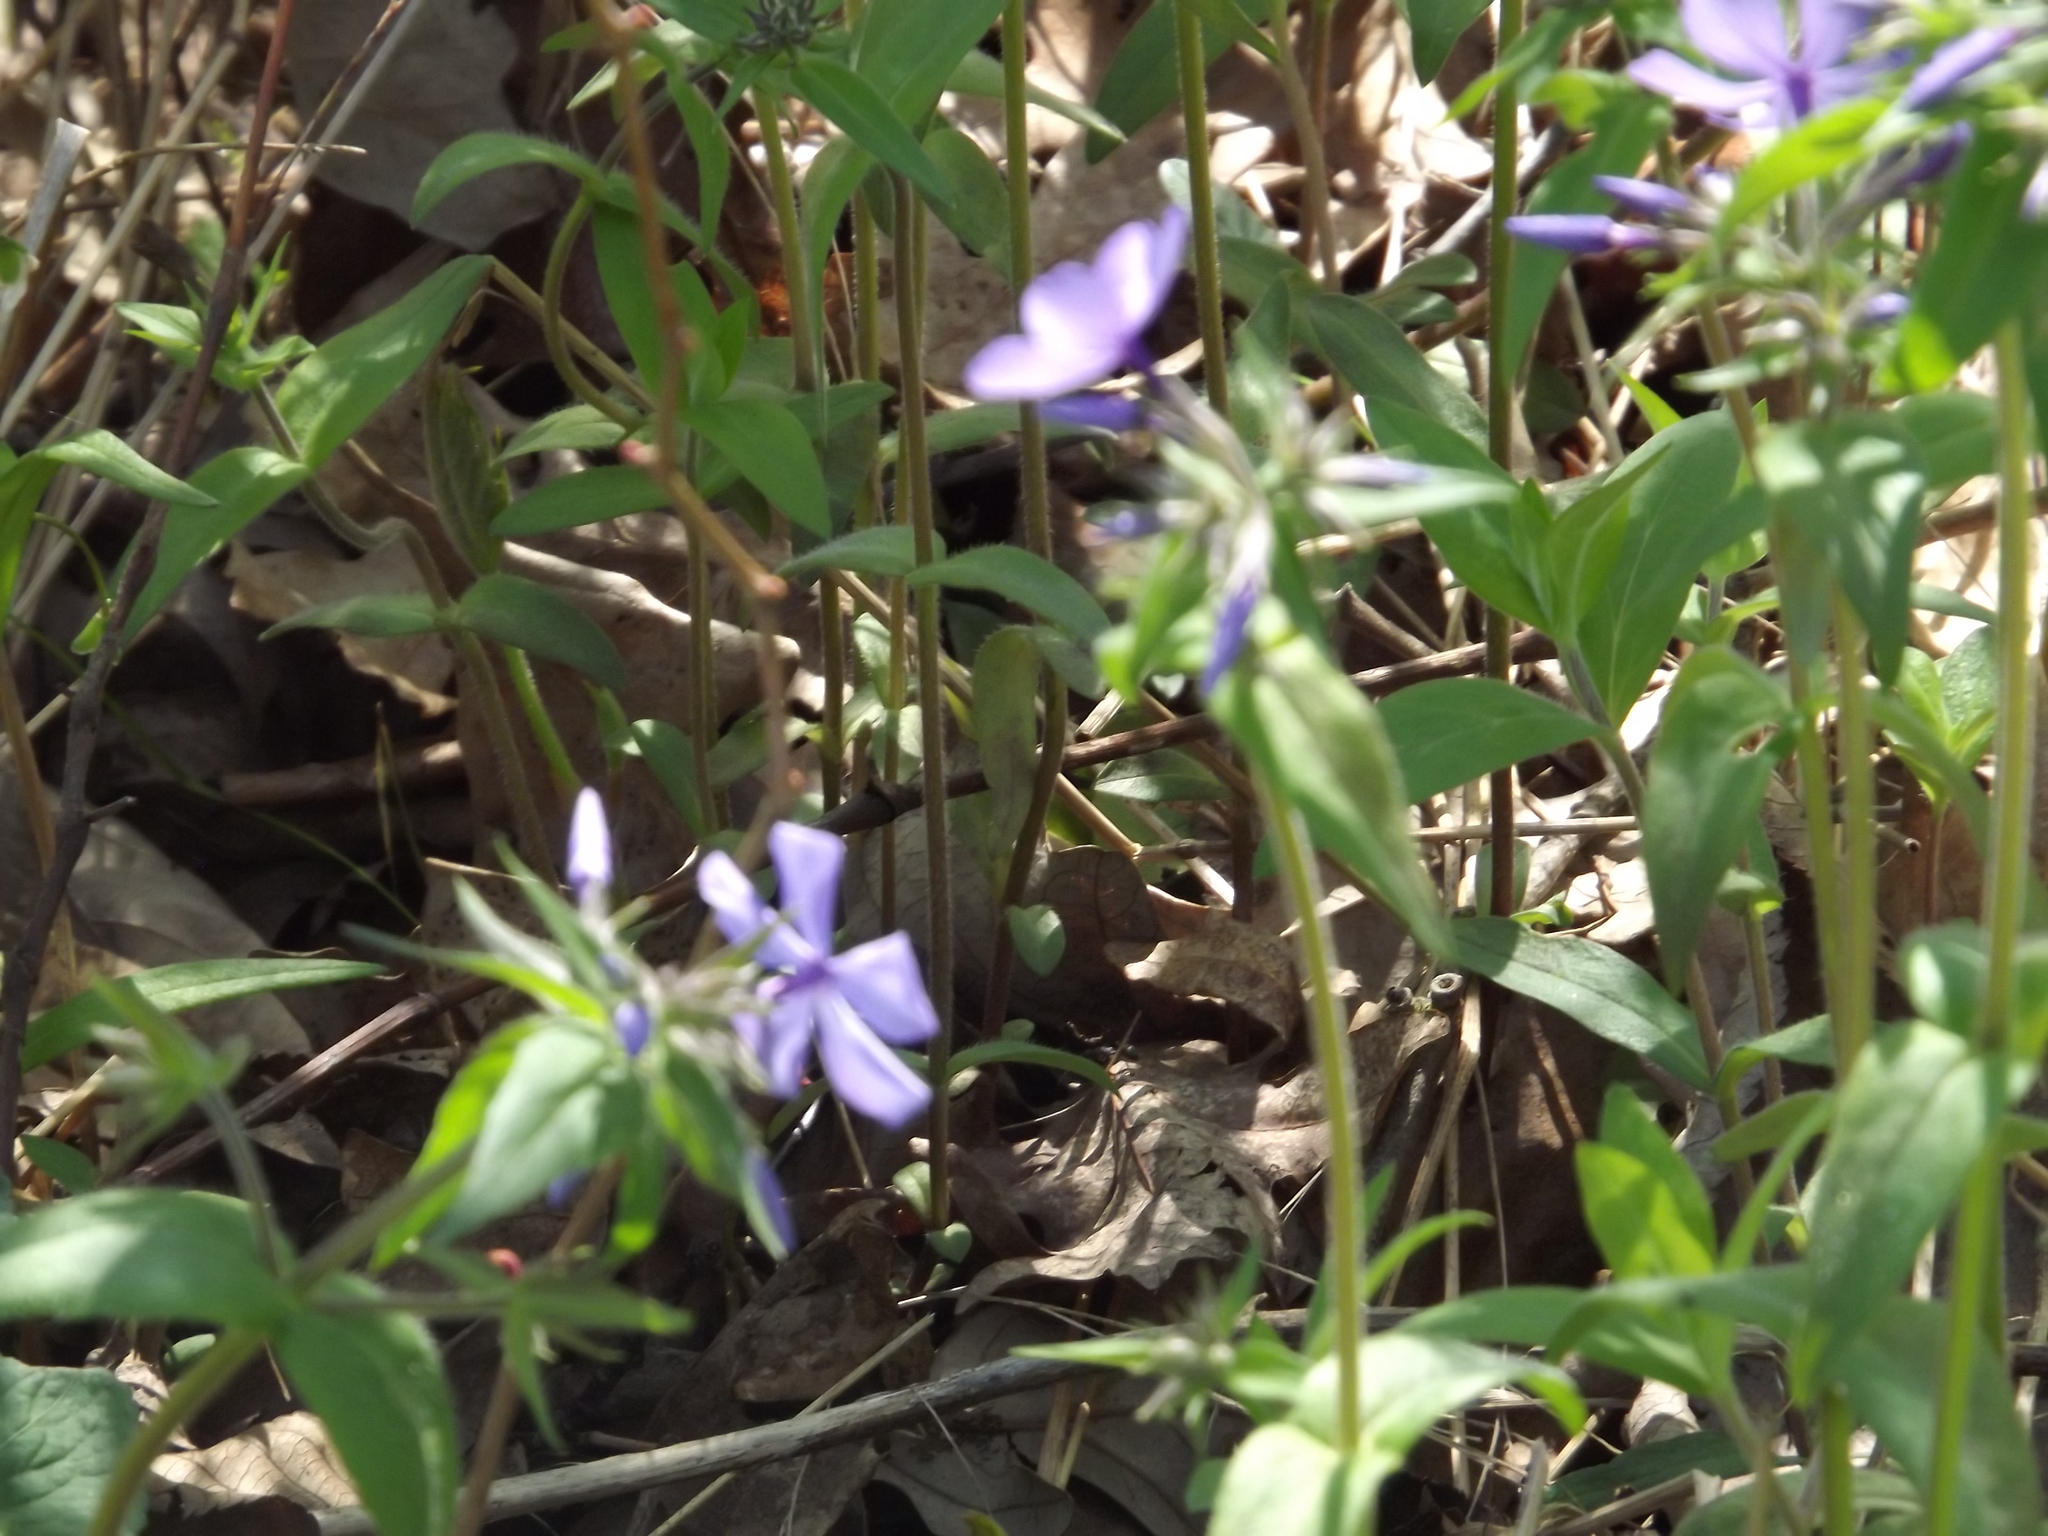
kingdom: Plantae
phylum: Tracheophyta
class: Magnoliopsida
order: Ericales
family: Polemoniaceae
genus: Phlox
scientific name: Phlox divaricata
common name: Blue phlox
